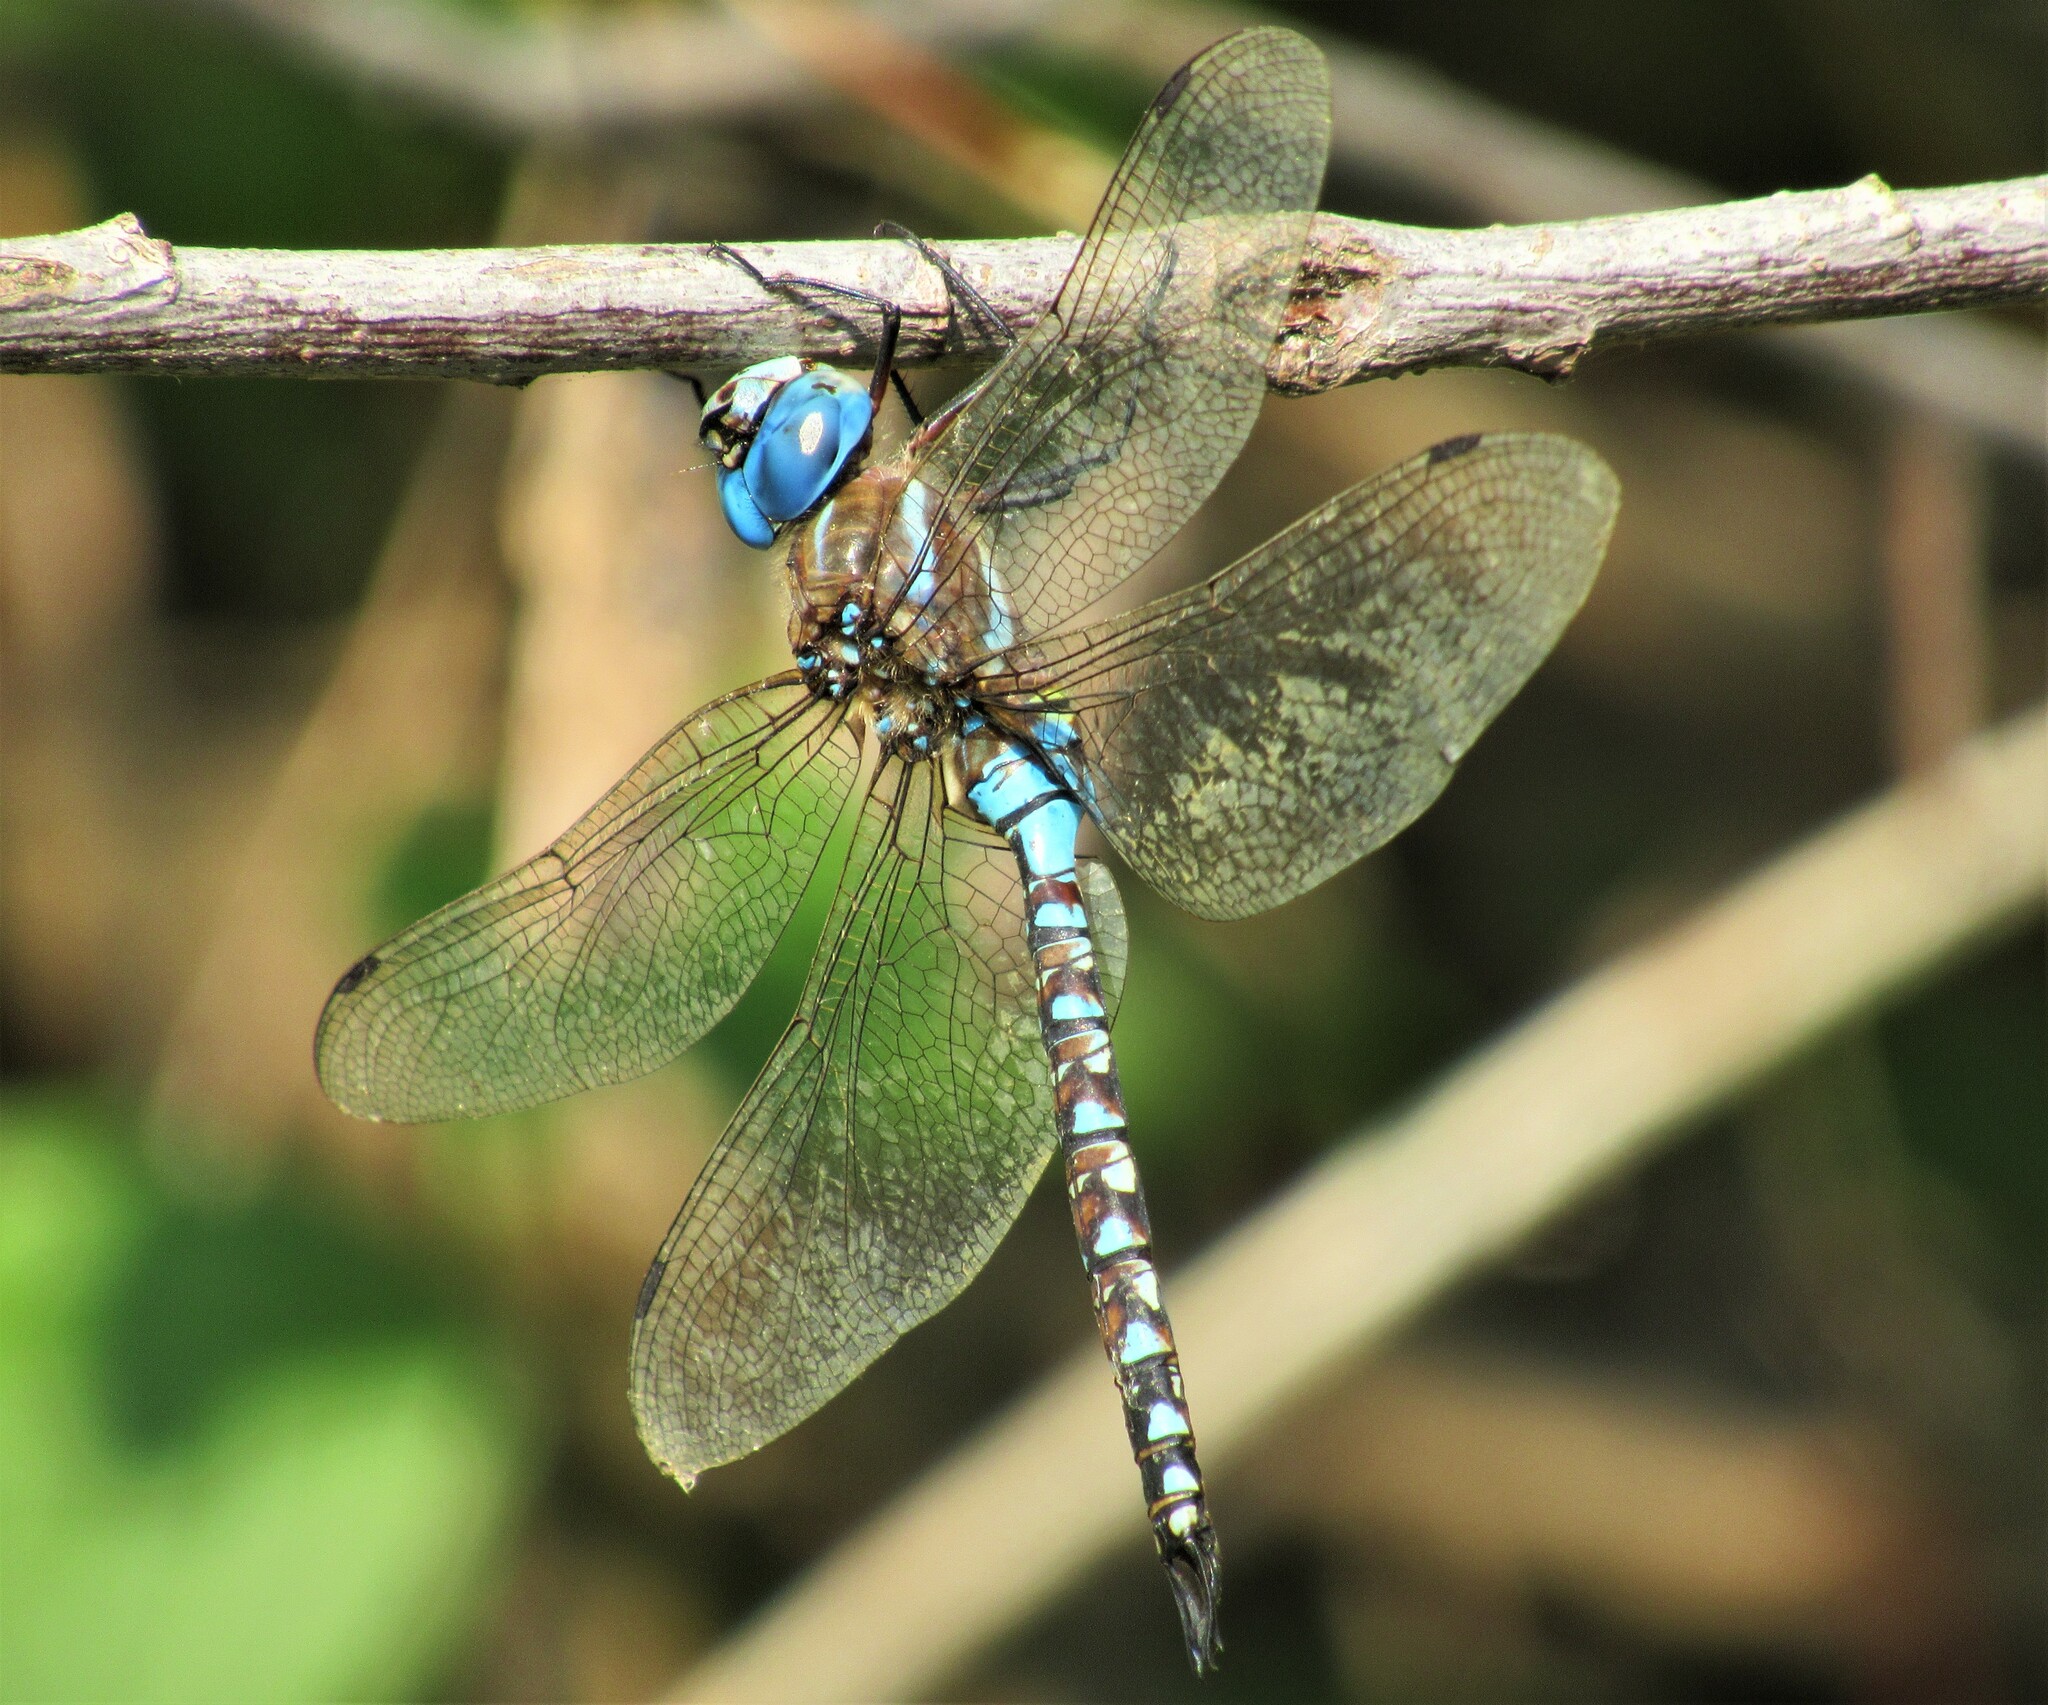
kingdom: Animalia
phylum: Arthropoda
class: Insecta
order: Odonata
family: Aeshnidae
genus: Rhionaeschna
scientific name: Rhionaeschna multicolor
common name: Blue-eyed darner
